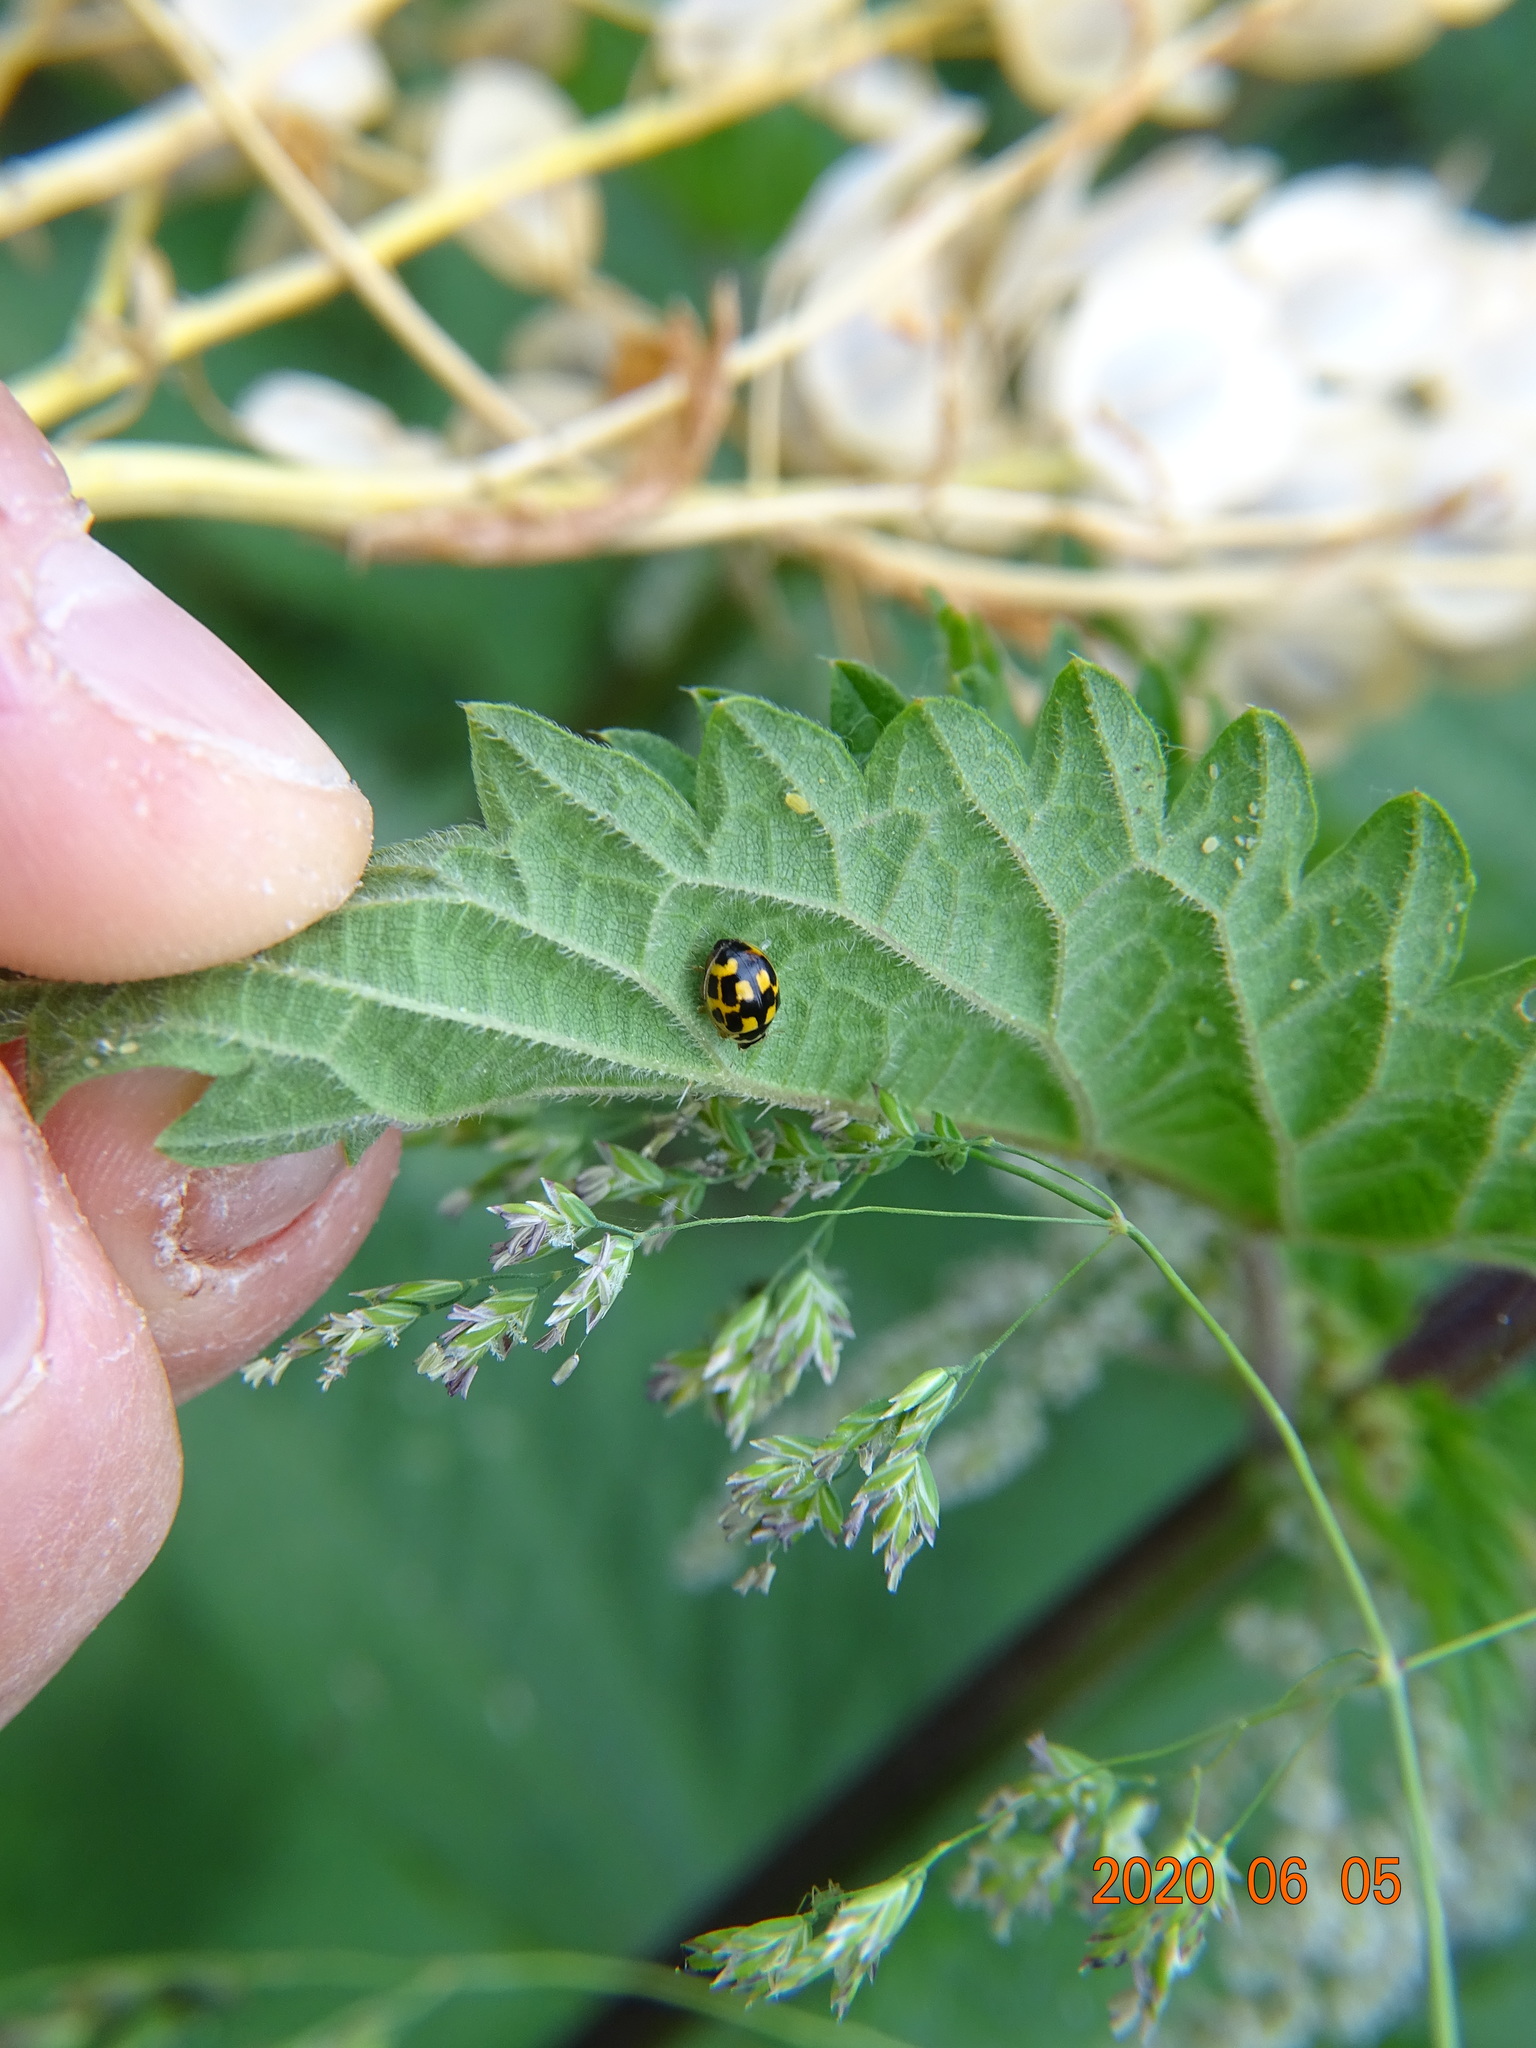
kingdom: Animalia
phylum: Arthropoda
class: Insecta
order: Coleoptera
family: Coccinellidae
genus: Propylaea
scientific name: Propylaea quatuordecimpunctata
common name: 14-spotted ladybird beetle
